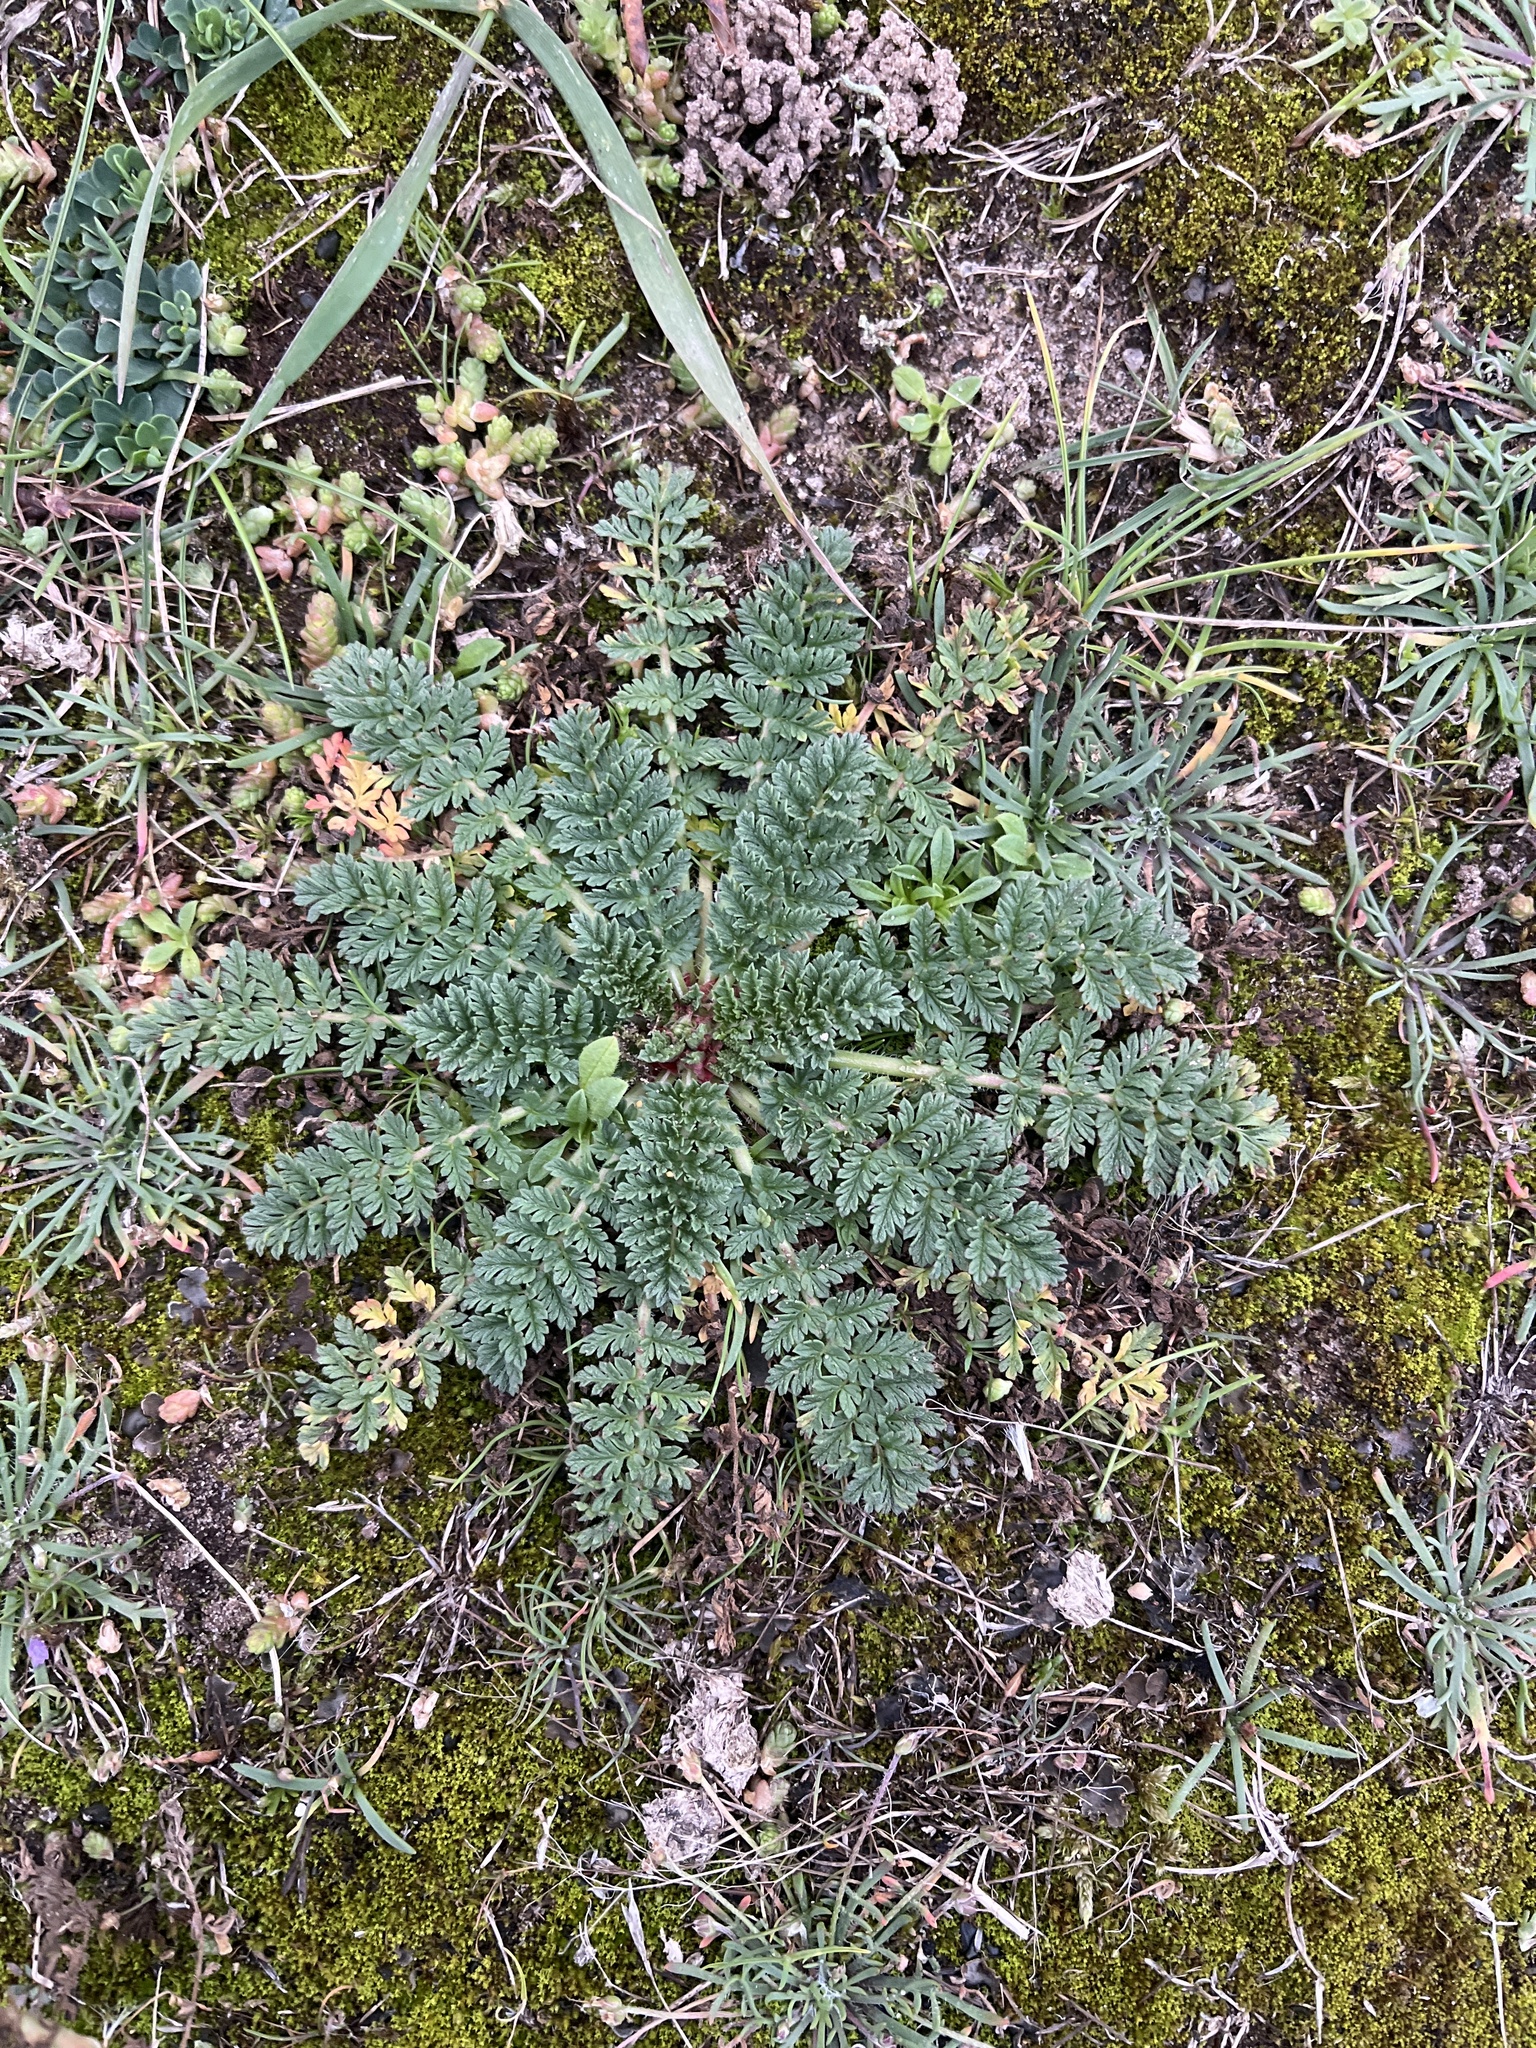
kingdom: Plantae
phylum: Tracheophyta
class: Magnoliopsida
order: Geraniales
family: Geraniaceae
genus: Erodium
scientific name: Erodium cicutarium
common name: Common stork's-bill
